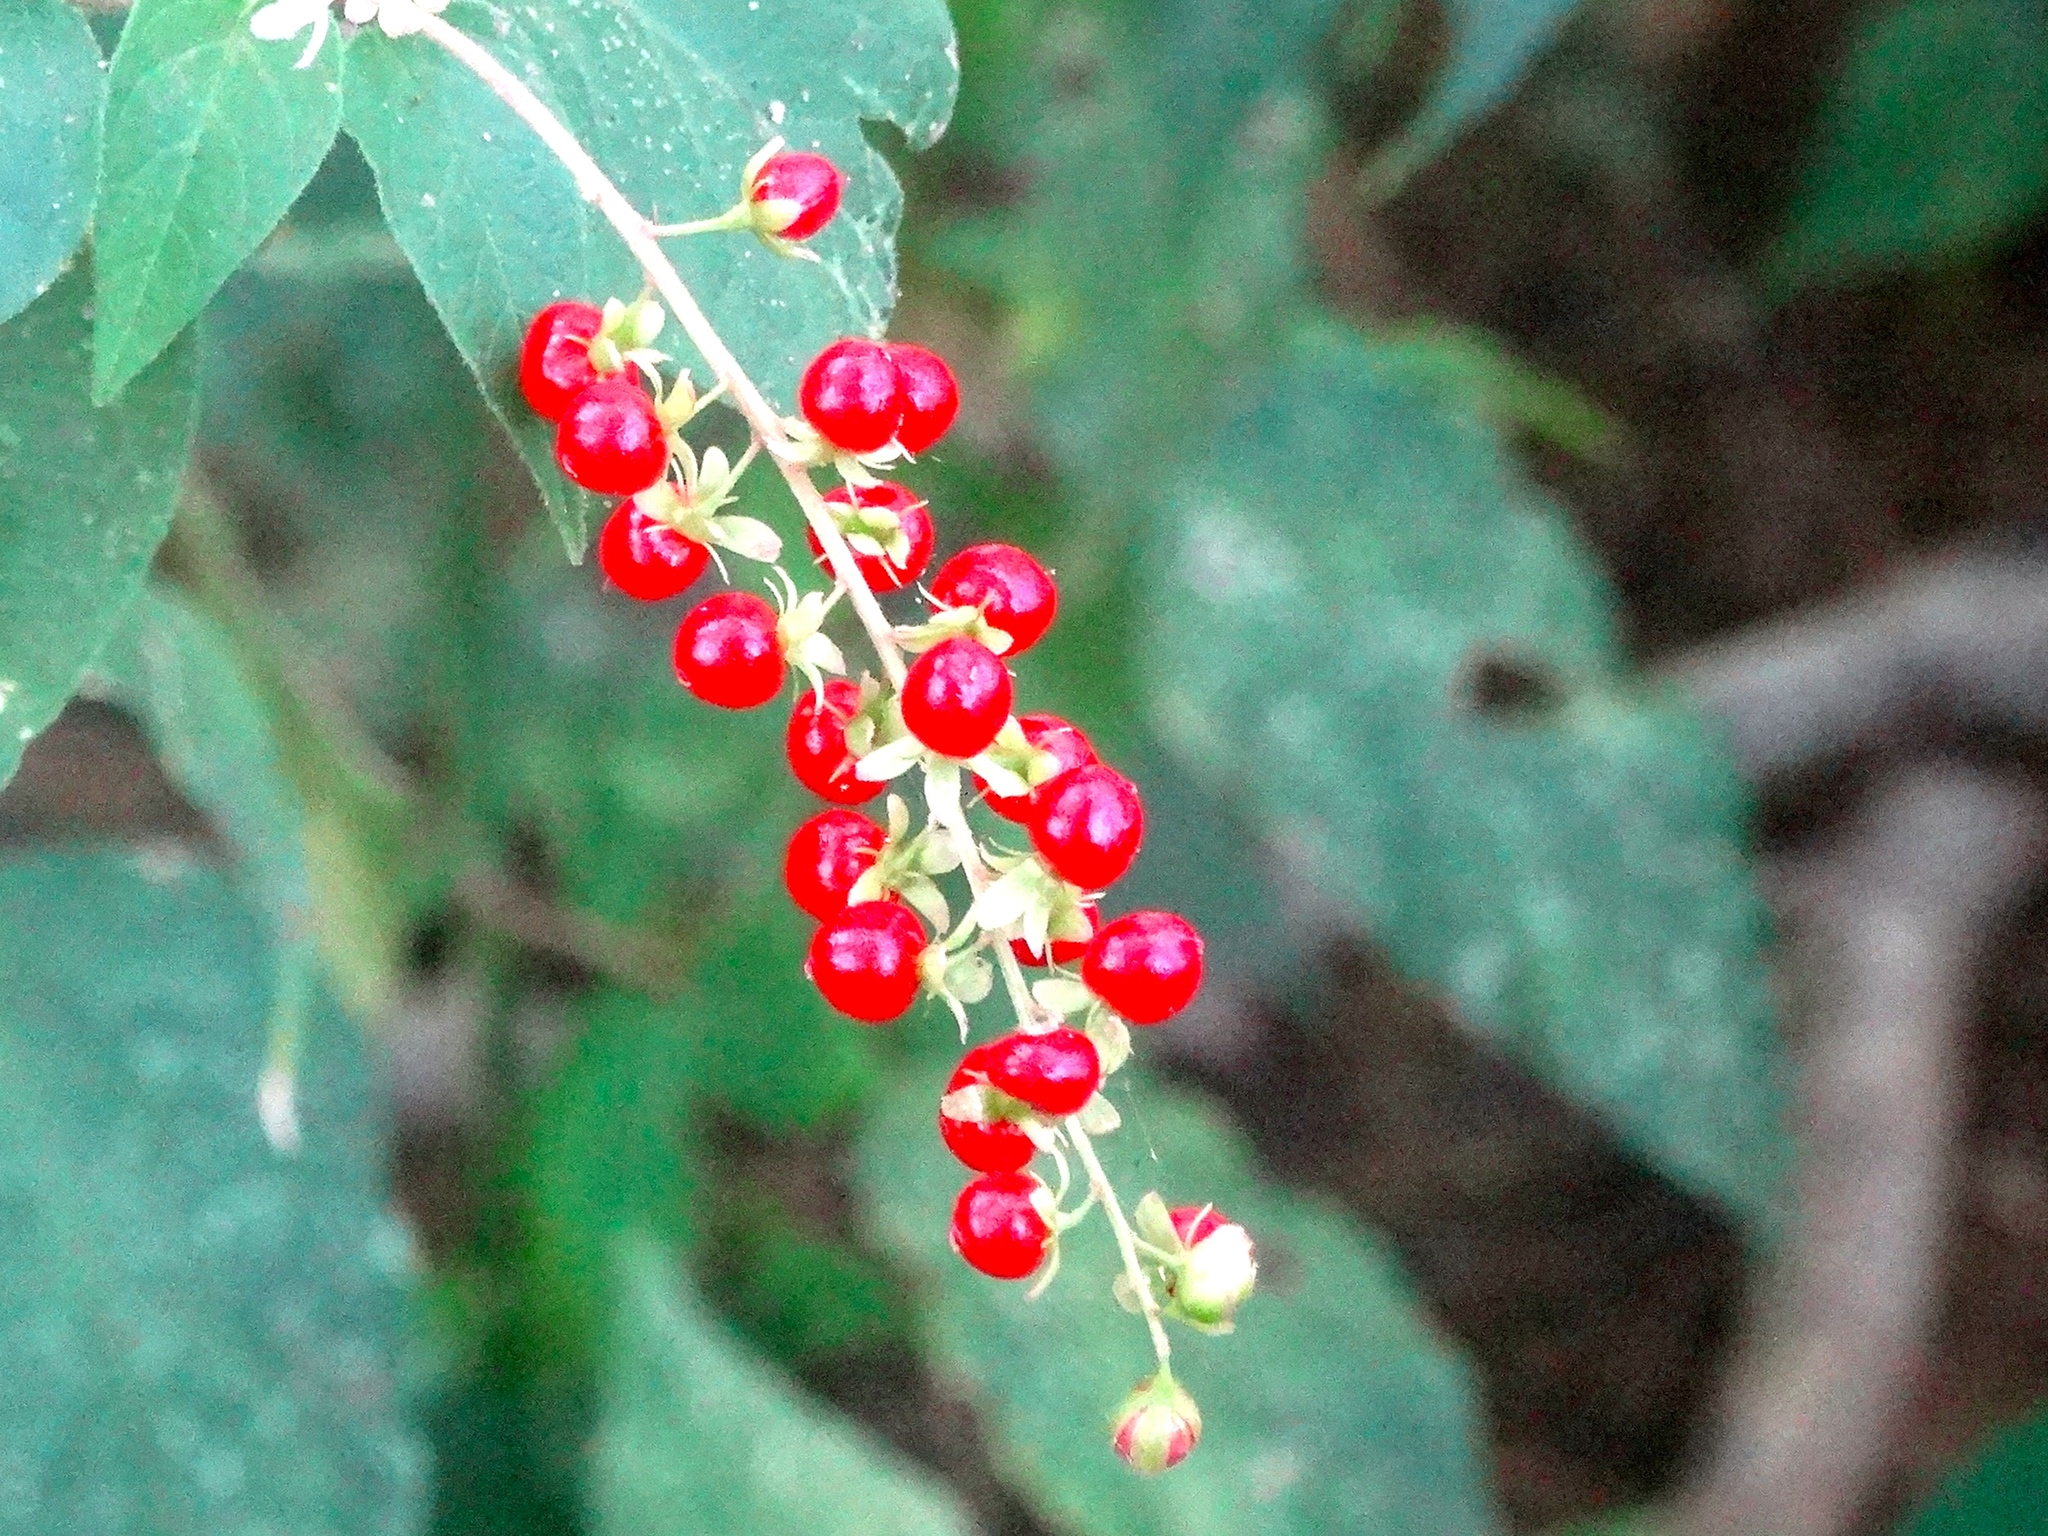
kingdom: Plantae
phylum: Tracheophyta
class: Magnoliopsida
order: Caryophyllales
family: Phytolaccaceae
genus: Rivina
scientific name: Rivina humilis
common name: Rougeplant
